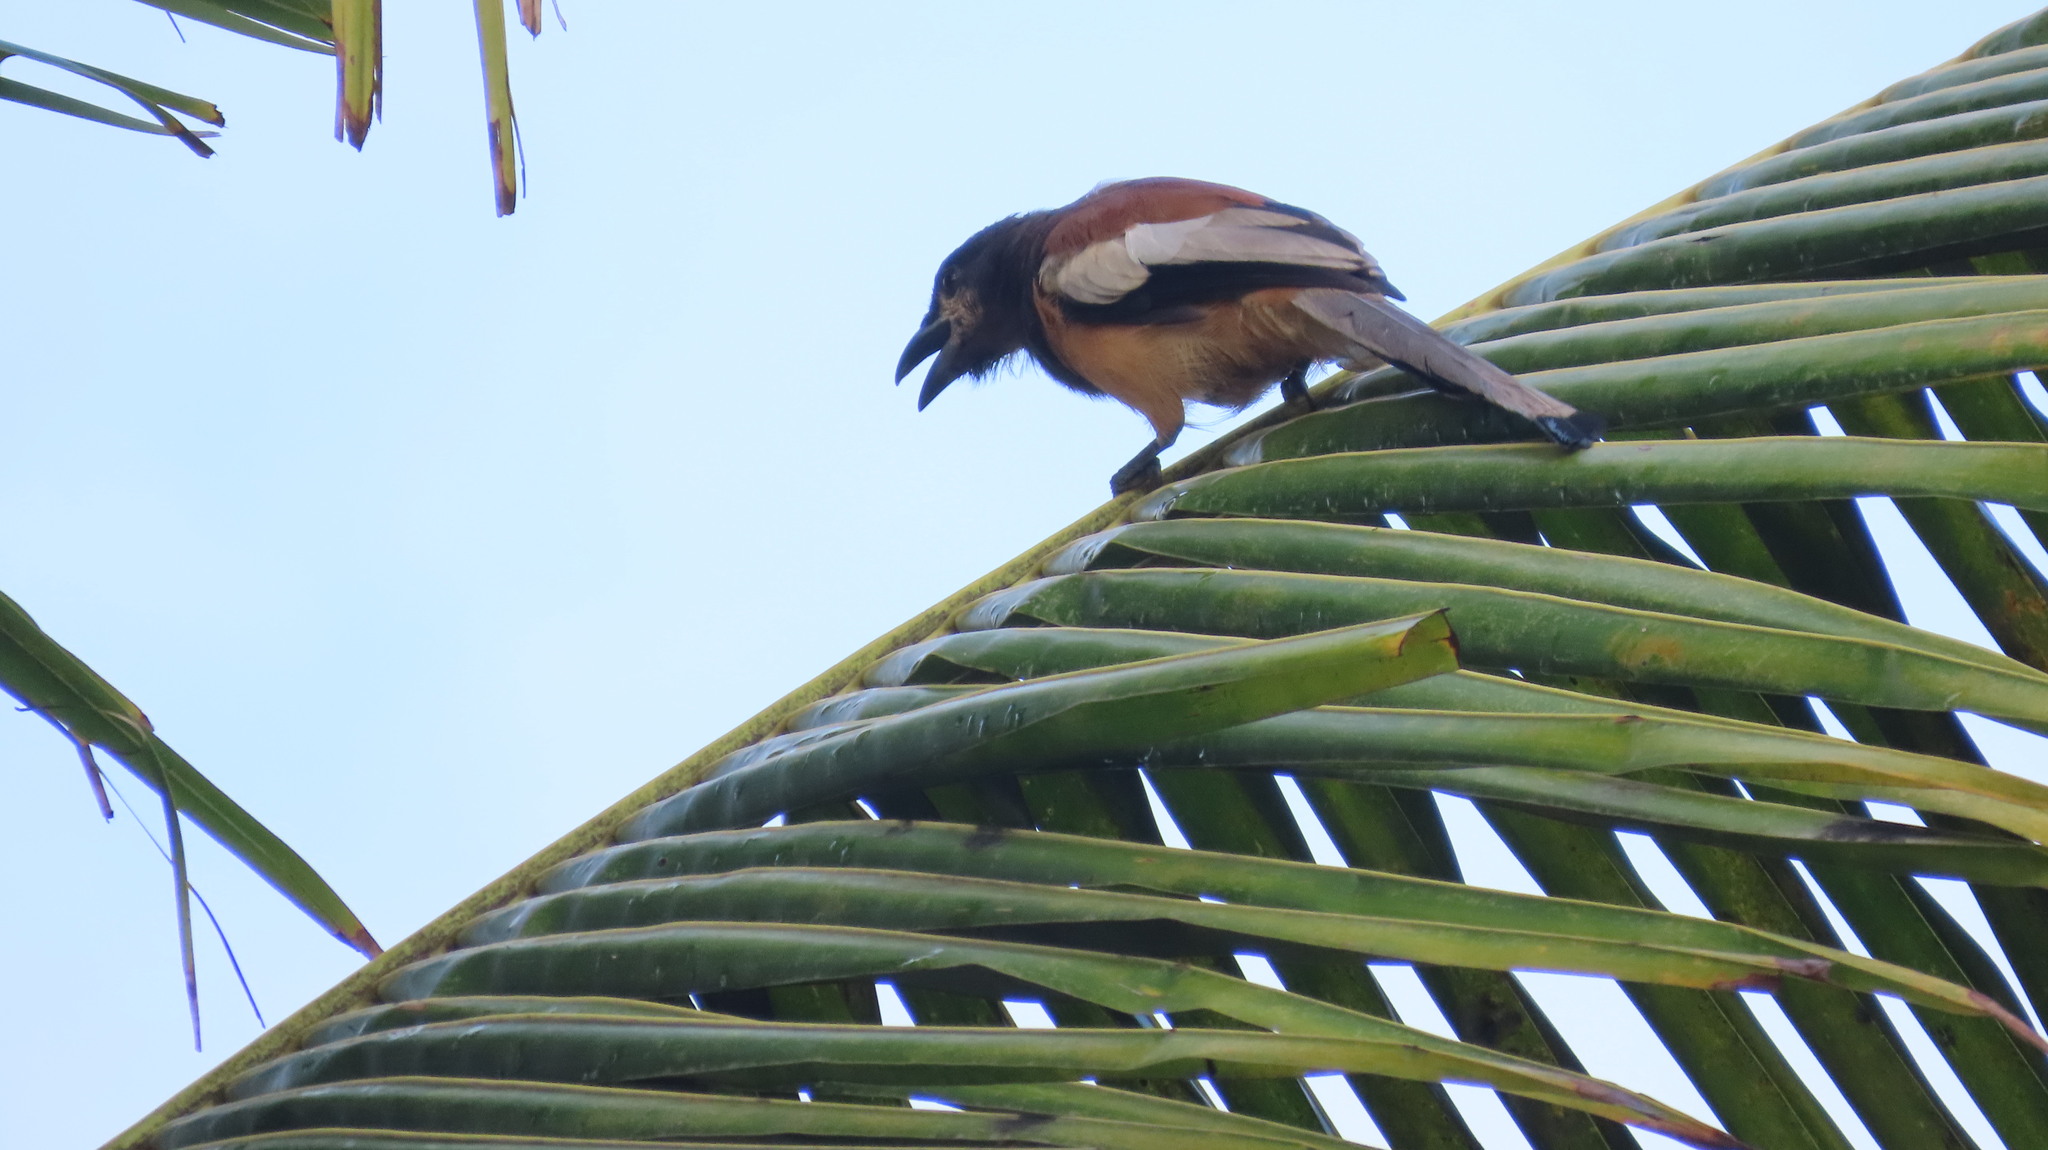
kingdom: Animalia
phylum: Chordata
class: Aves
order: Passeriformes
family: Corvidae
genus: Dendrocitta
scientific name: Dendrocitta vagabunda
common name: Rufous treepie
